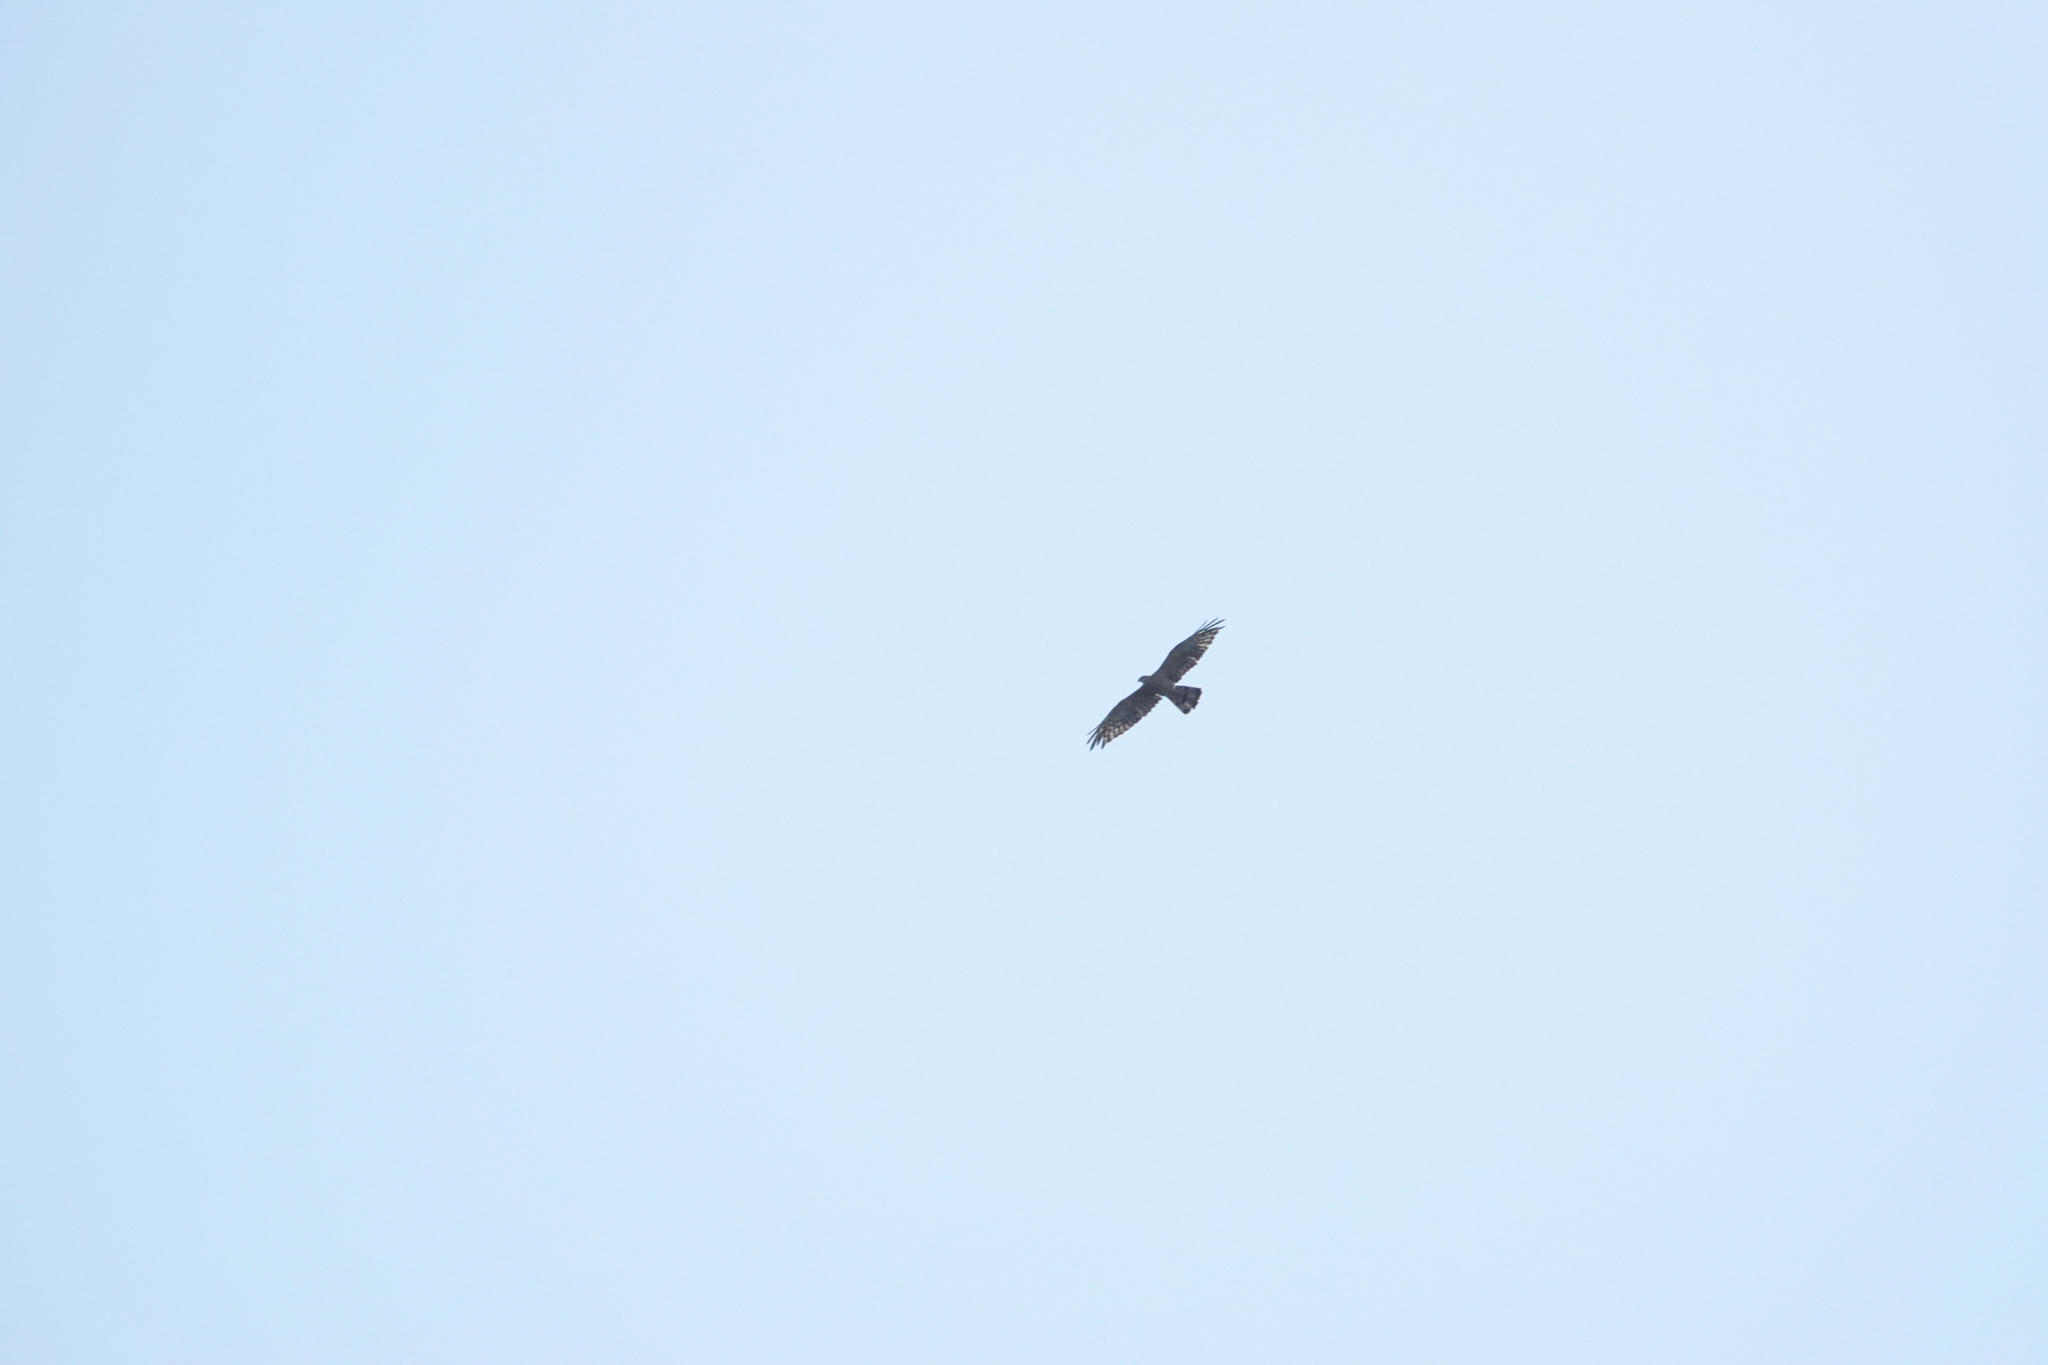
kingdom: Animalia
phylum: Chordata
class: Aves
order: Accipitriformes
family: Accipitridae
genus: Pernis
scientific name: Pernis ptilorhynchus
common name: Crested honey buzzard
